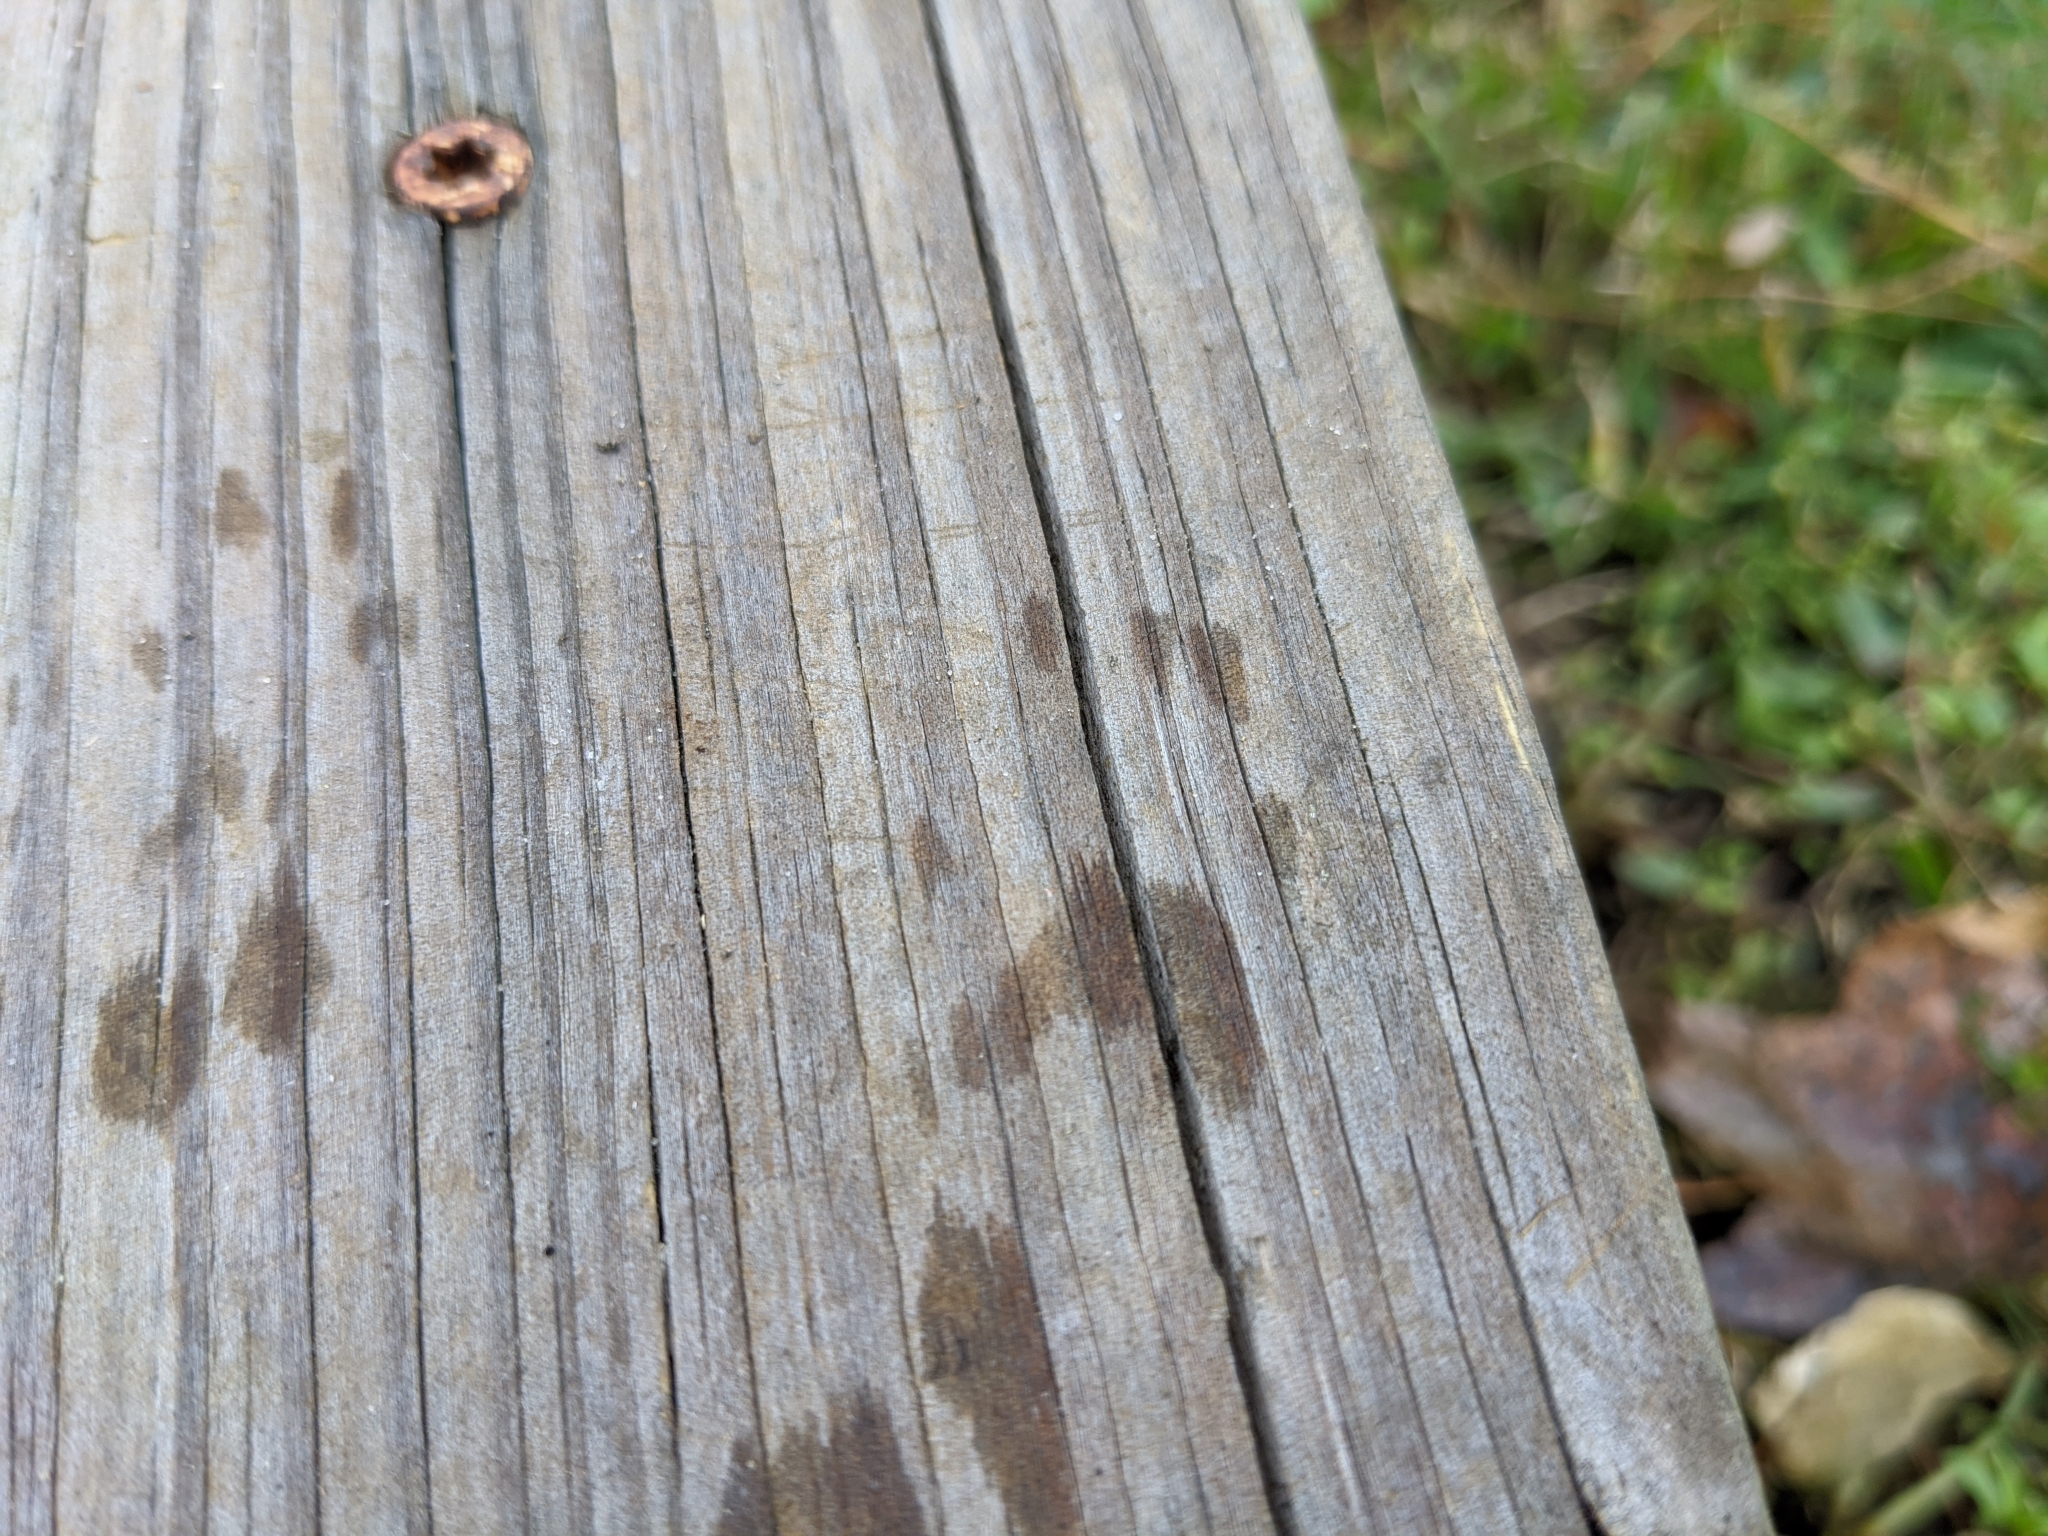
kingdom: Animalia
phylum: Chordata
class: Mammalia
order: Rodentia
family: Sciuridae
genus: Sciurus
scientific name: Sciurus carolinensis
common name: Eastern gray squirrel
